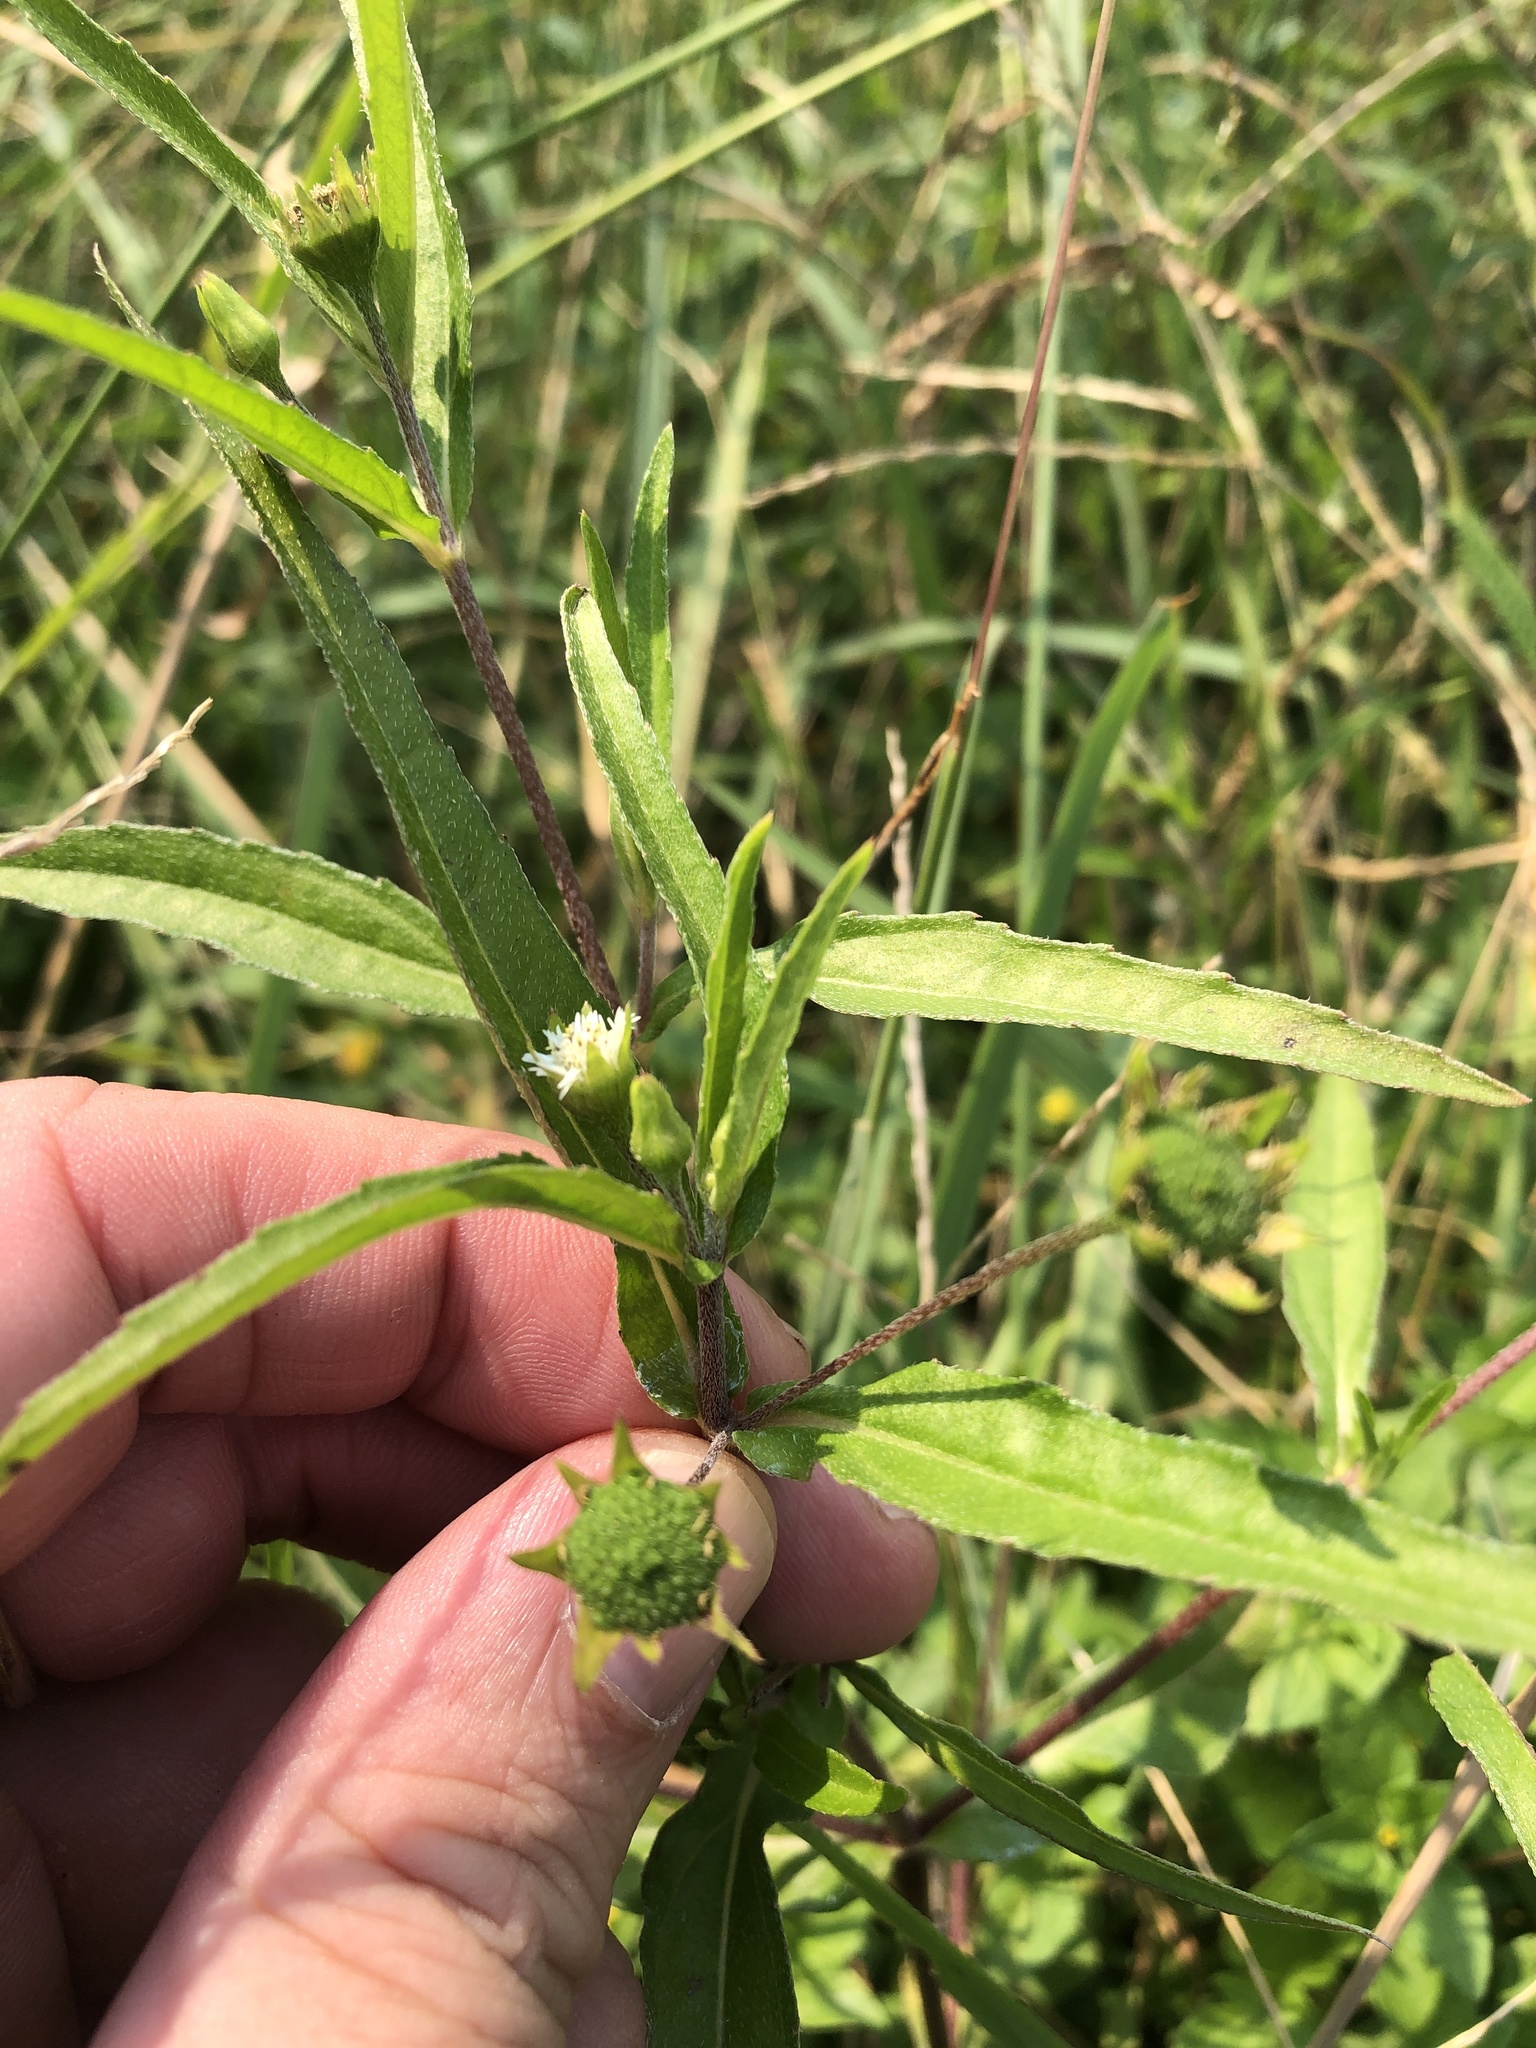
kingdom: Plantae
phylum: Tracheophyta
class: Magnoliopsida
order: Asterales
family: Asteraceae
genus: Eclipta
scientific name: Eclipta prostrata
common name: False daisy
